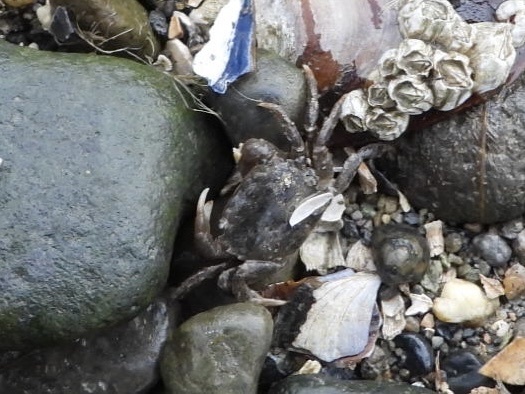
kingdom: Animalia
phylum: Arthropoda
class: Malacostraca
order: Decapoda
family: Varunidae
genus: Hemigrapsus
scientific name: Hemigrapsus oregonensis
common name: Yellow shore crab
